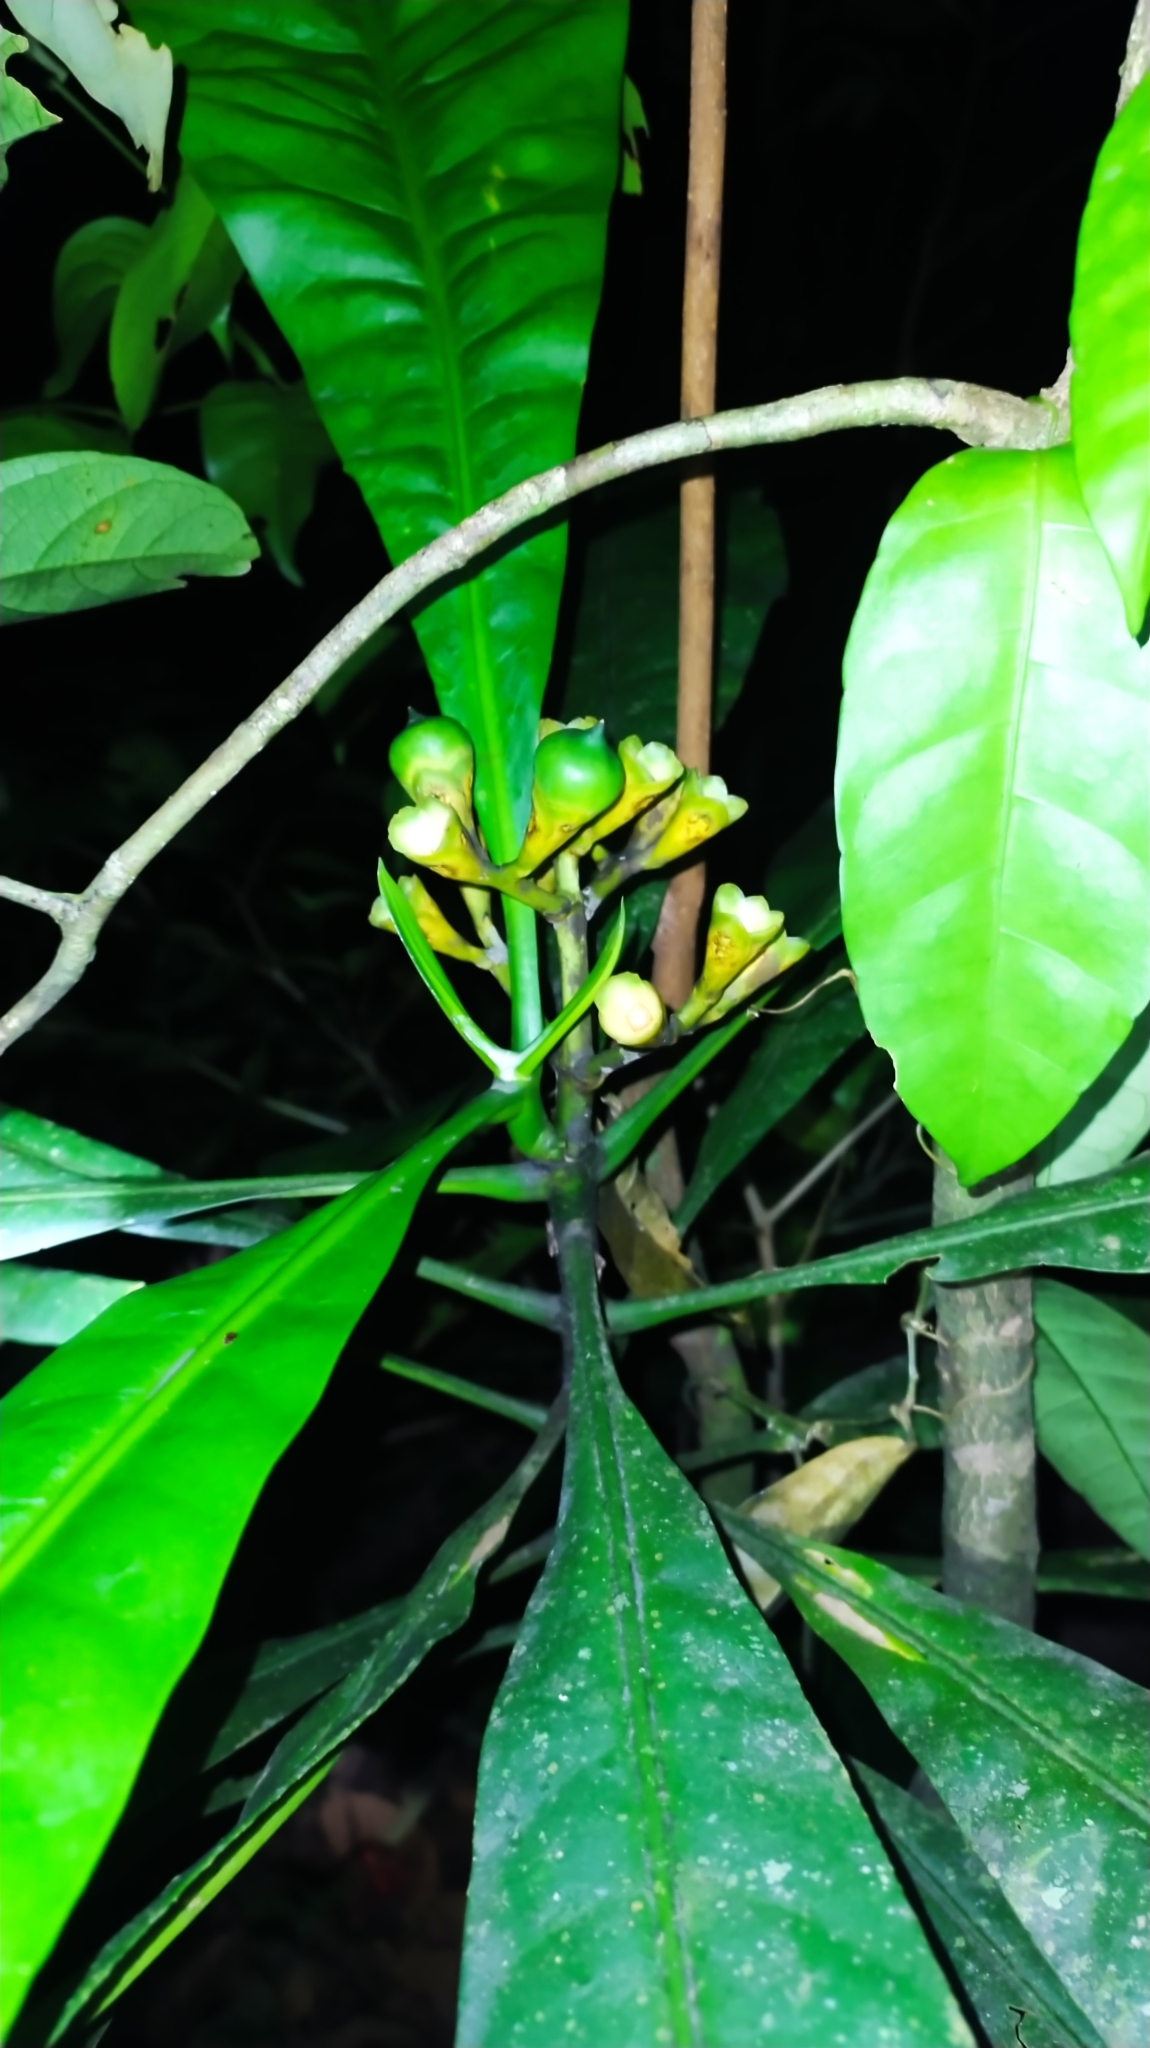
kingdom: Plantae
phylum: Tracheophyta
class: Magnoliopsida
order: Gentianales
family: Gentianaceae
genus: Potalia
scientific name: Potalia amara
